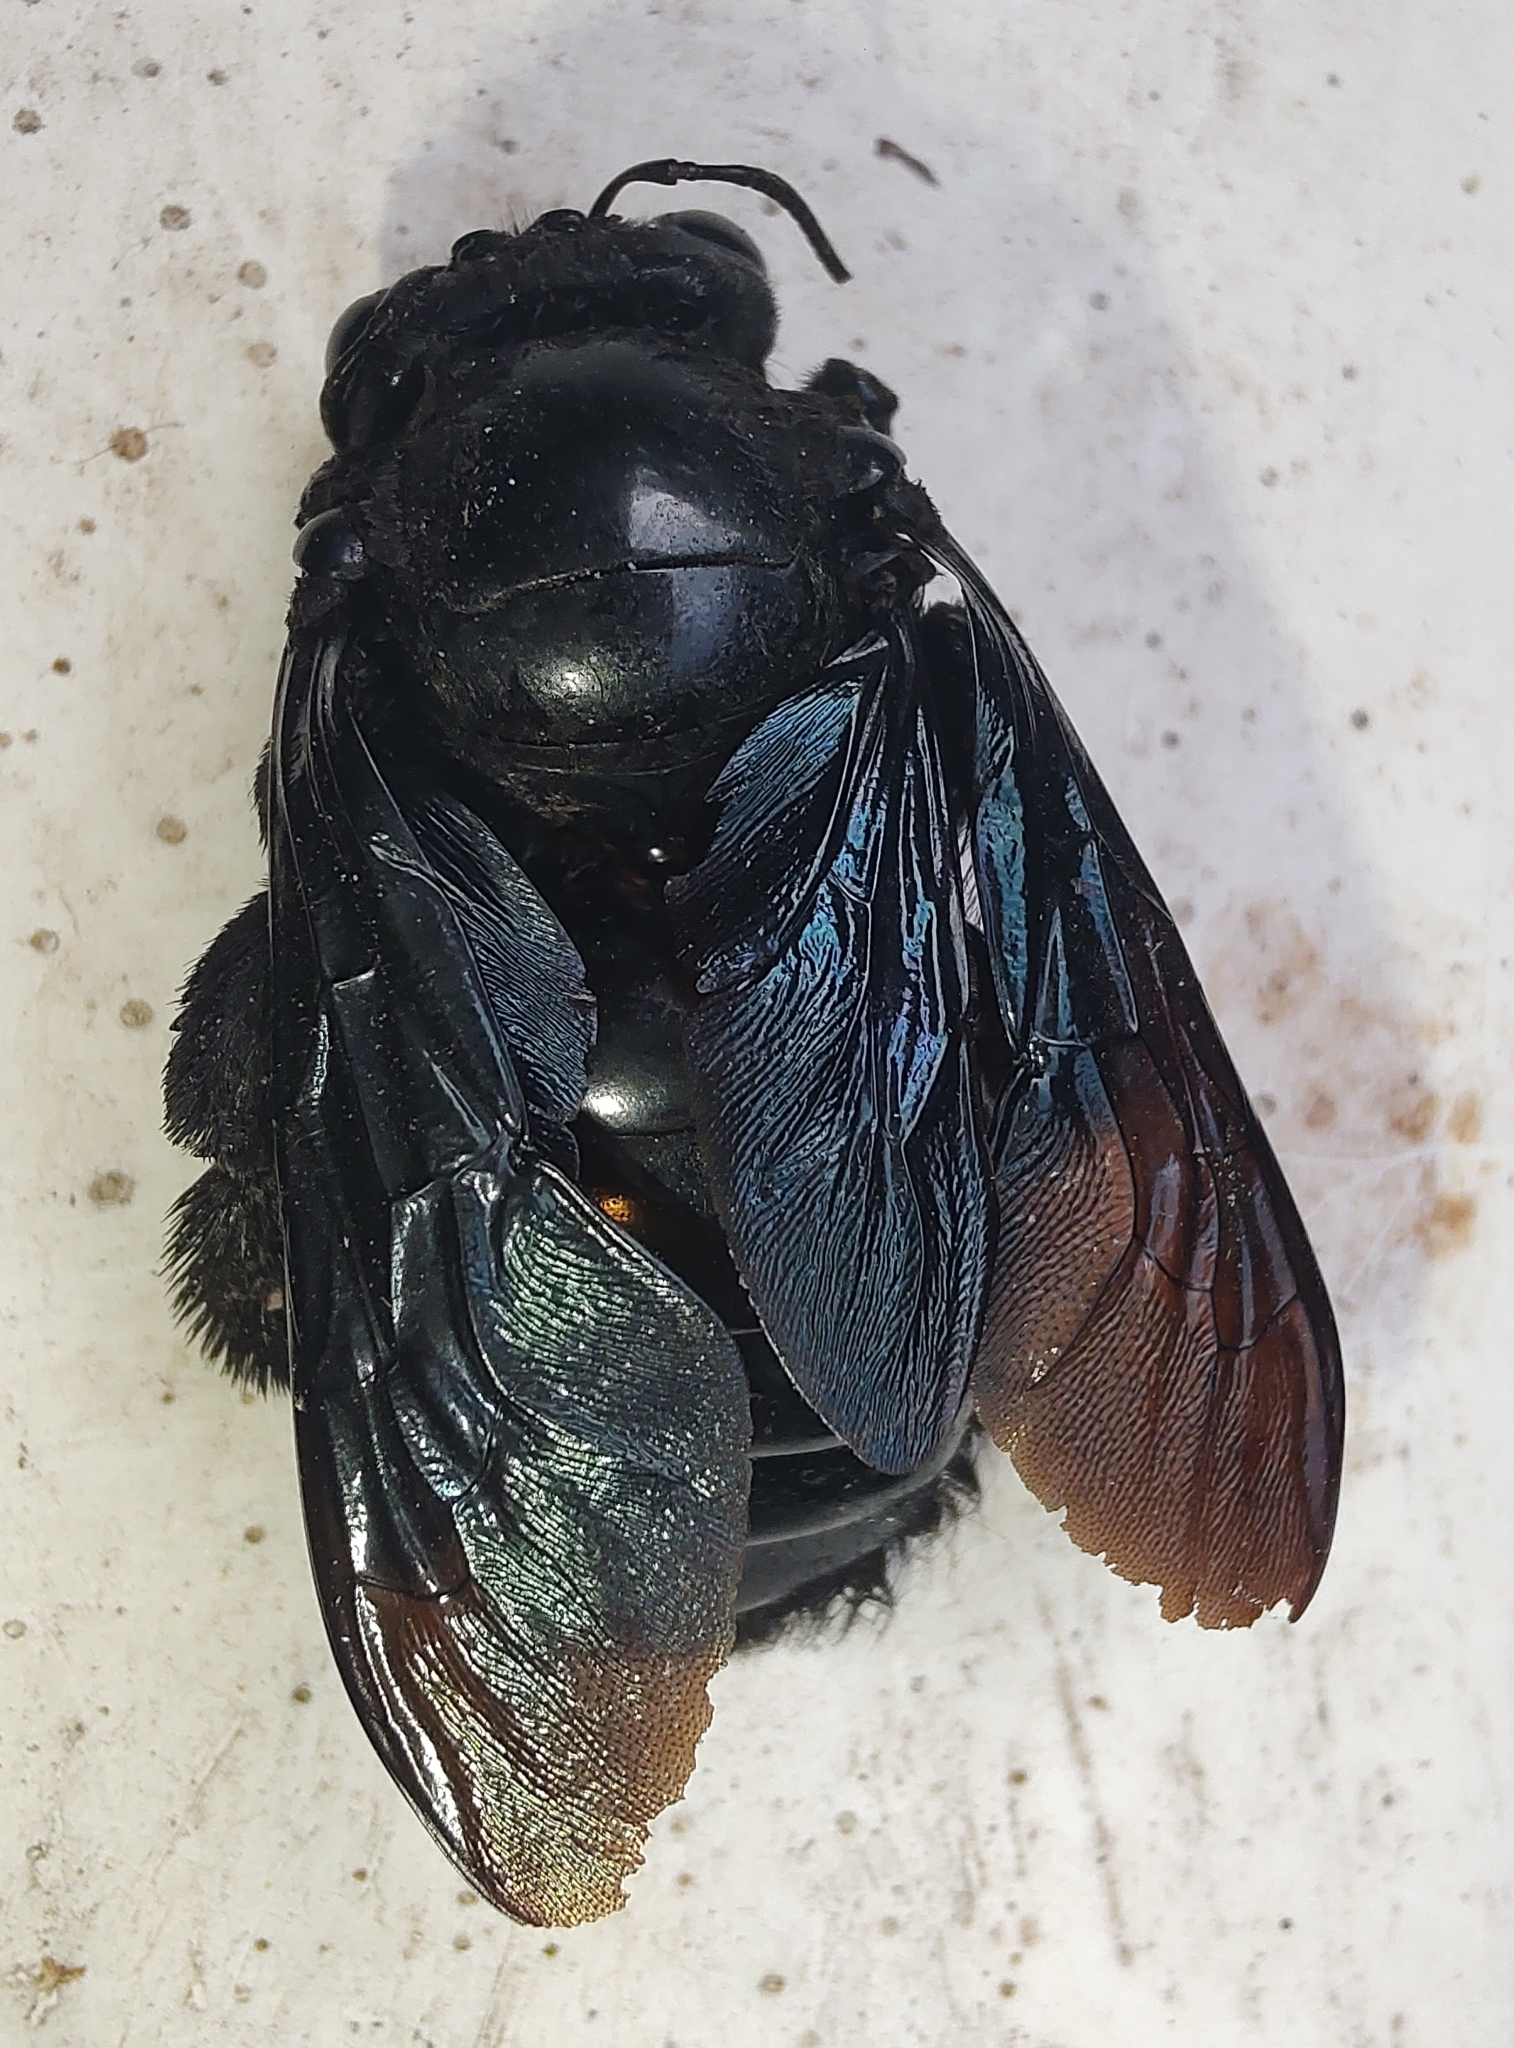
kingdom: Animalia
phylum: Arthropoda
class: Insecta
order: Hymenoptera
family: Apidae
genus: Xylocopa
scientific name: Xylocopa frontalis
